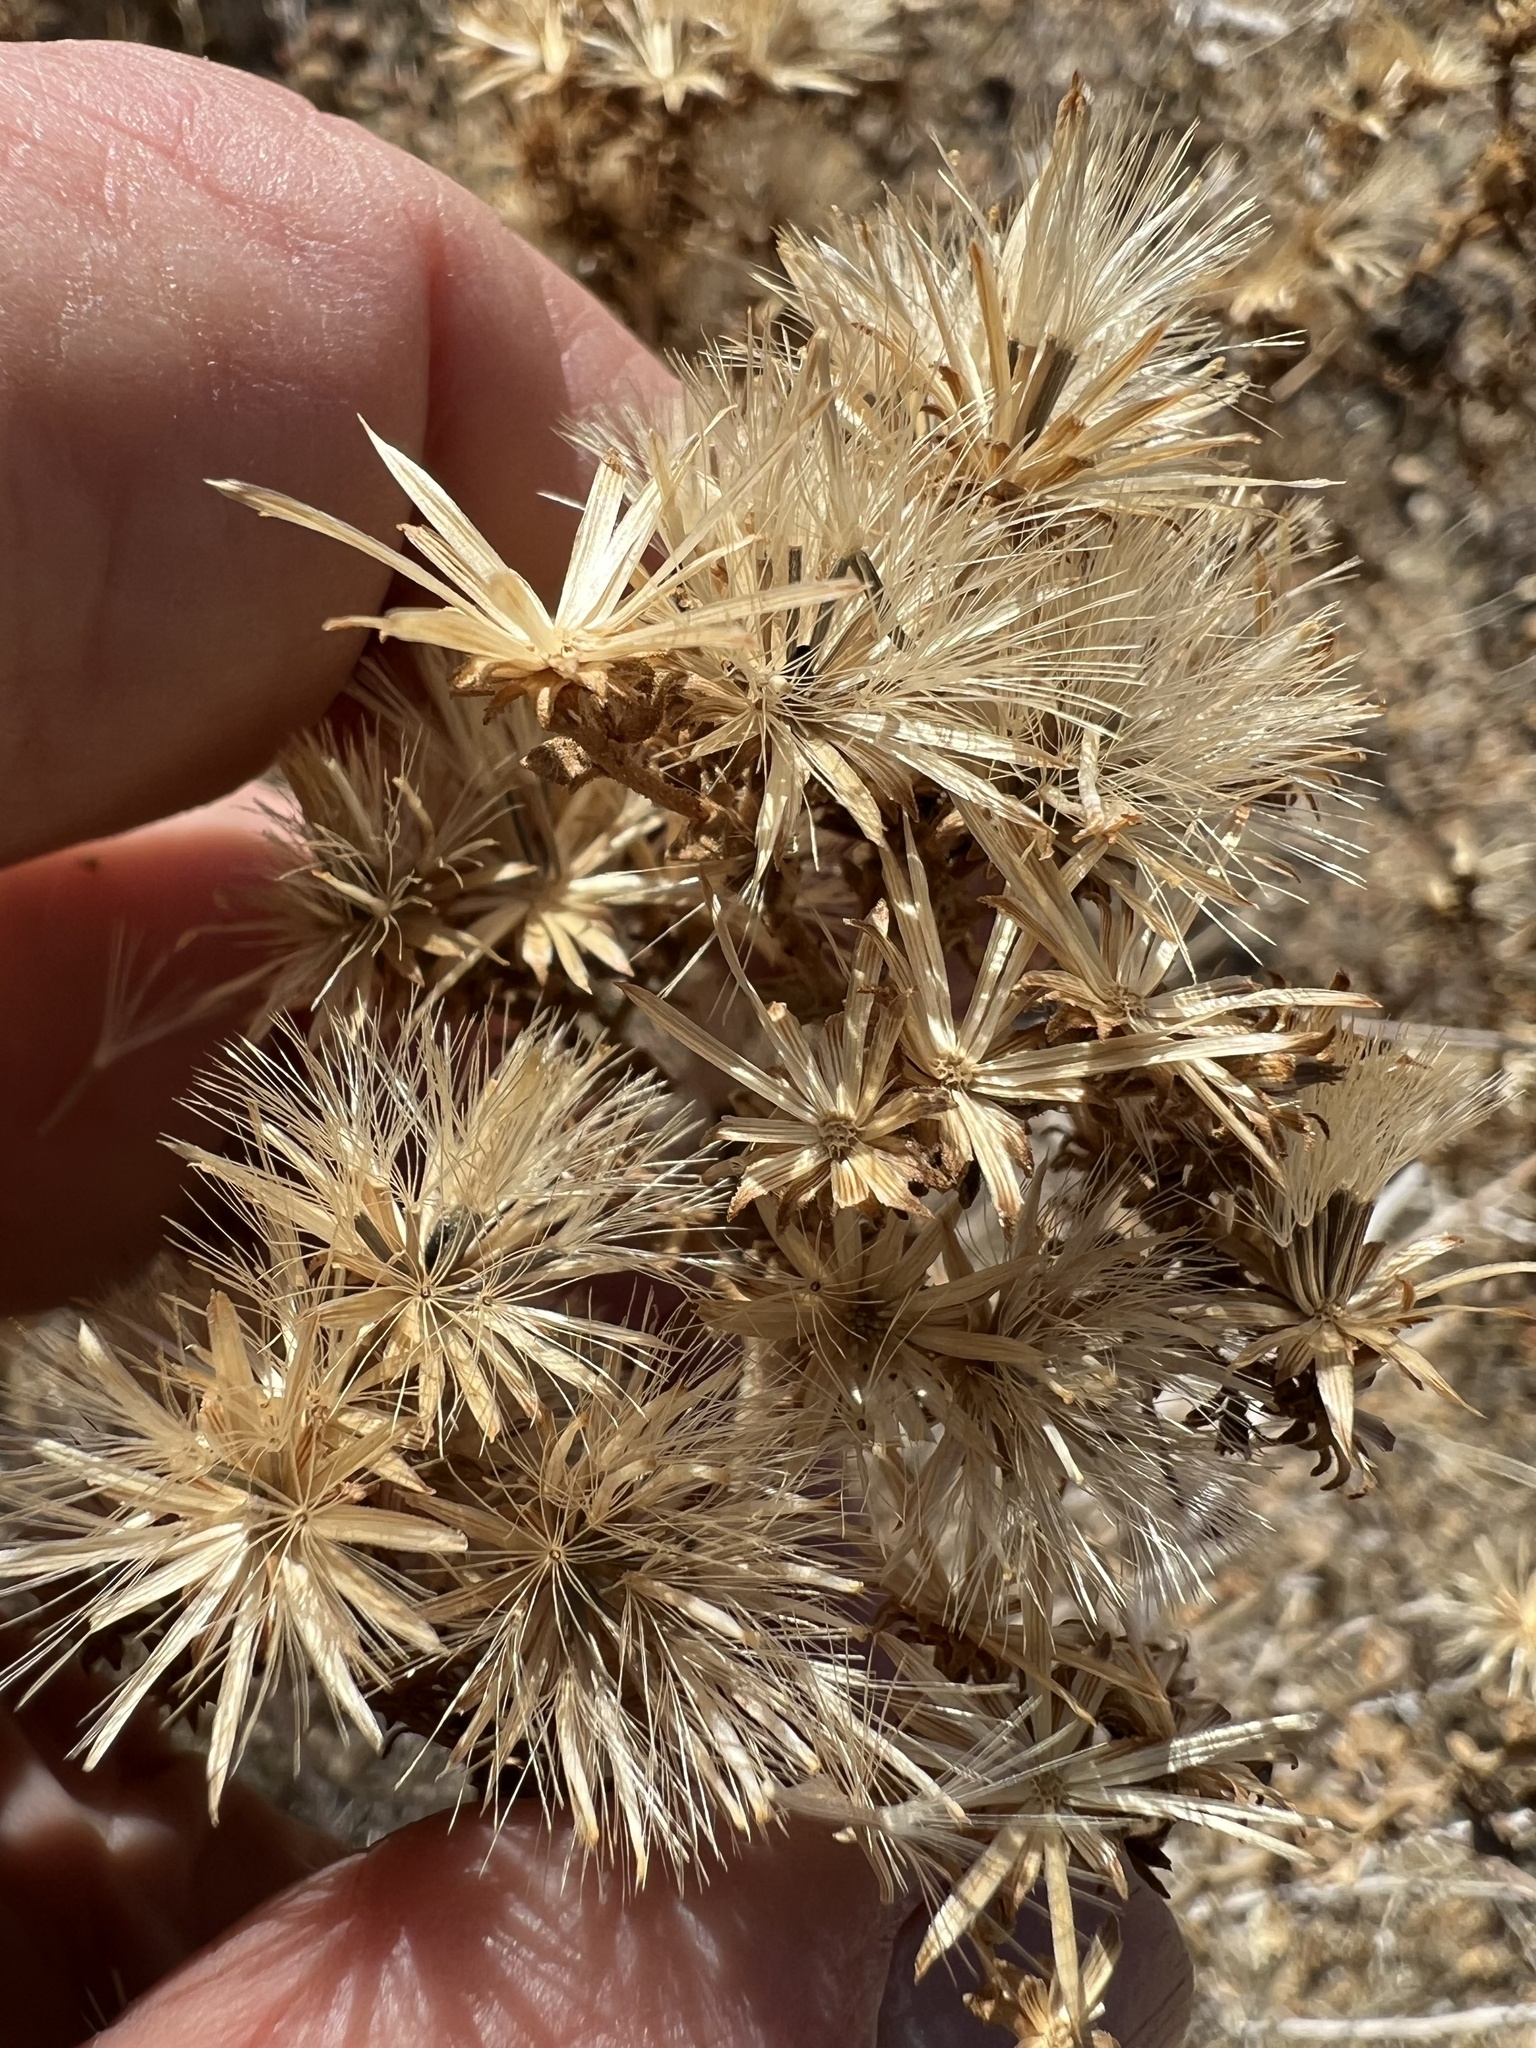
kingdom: Plantae
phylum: Tracheophyta
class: Magnoliopsida
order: Asterales
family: Asteraceae
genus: Brickellia
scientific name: Brickellia microphylla
